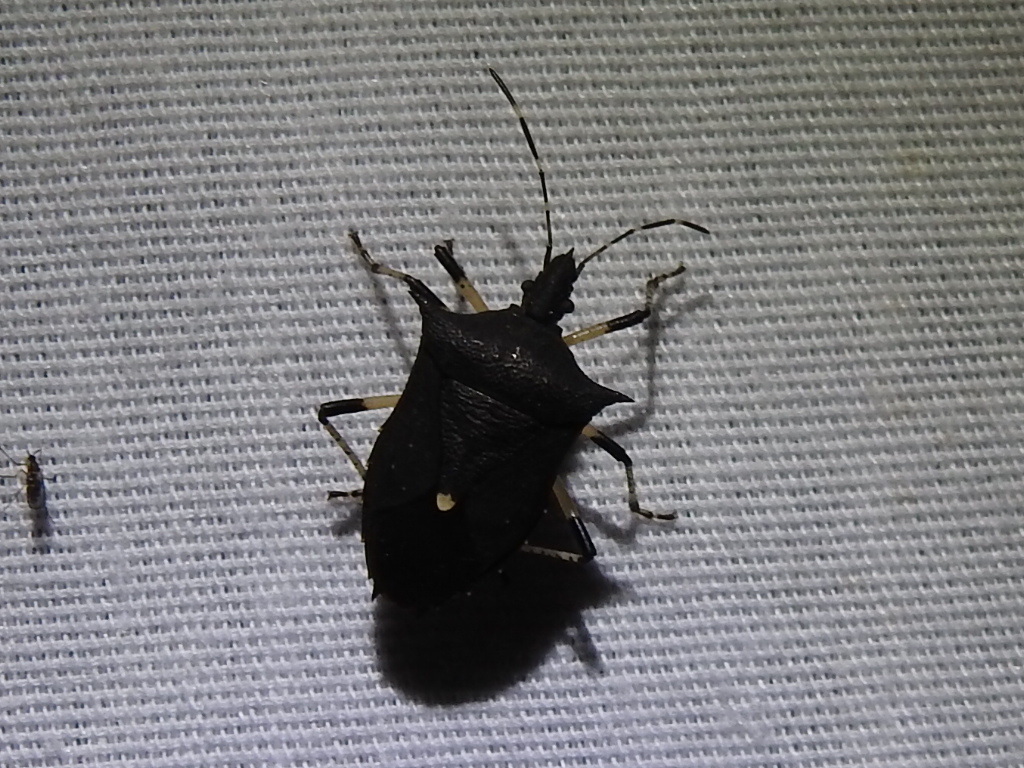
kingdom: Animalia
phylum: Arthropoda
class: Insecta
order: Hemiptera
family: Pentatomidae
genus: Proxys
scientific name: Proxys punctulatus
